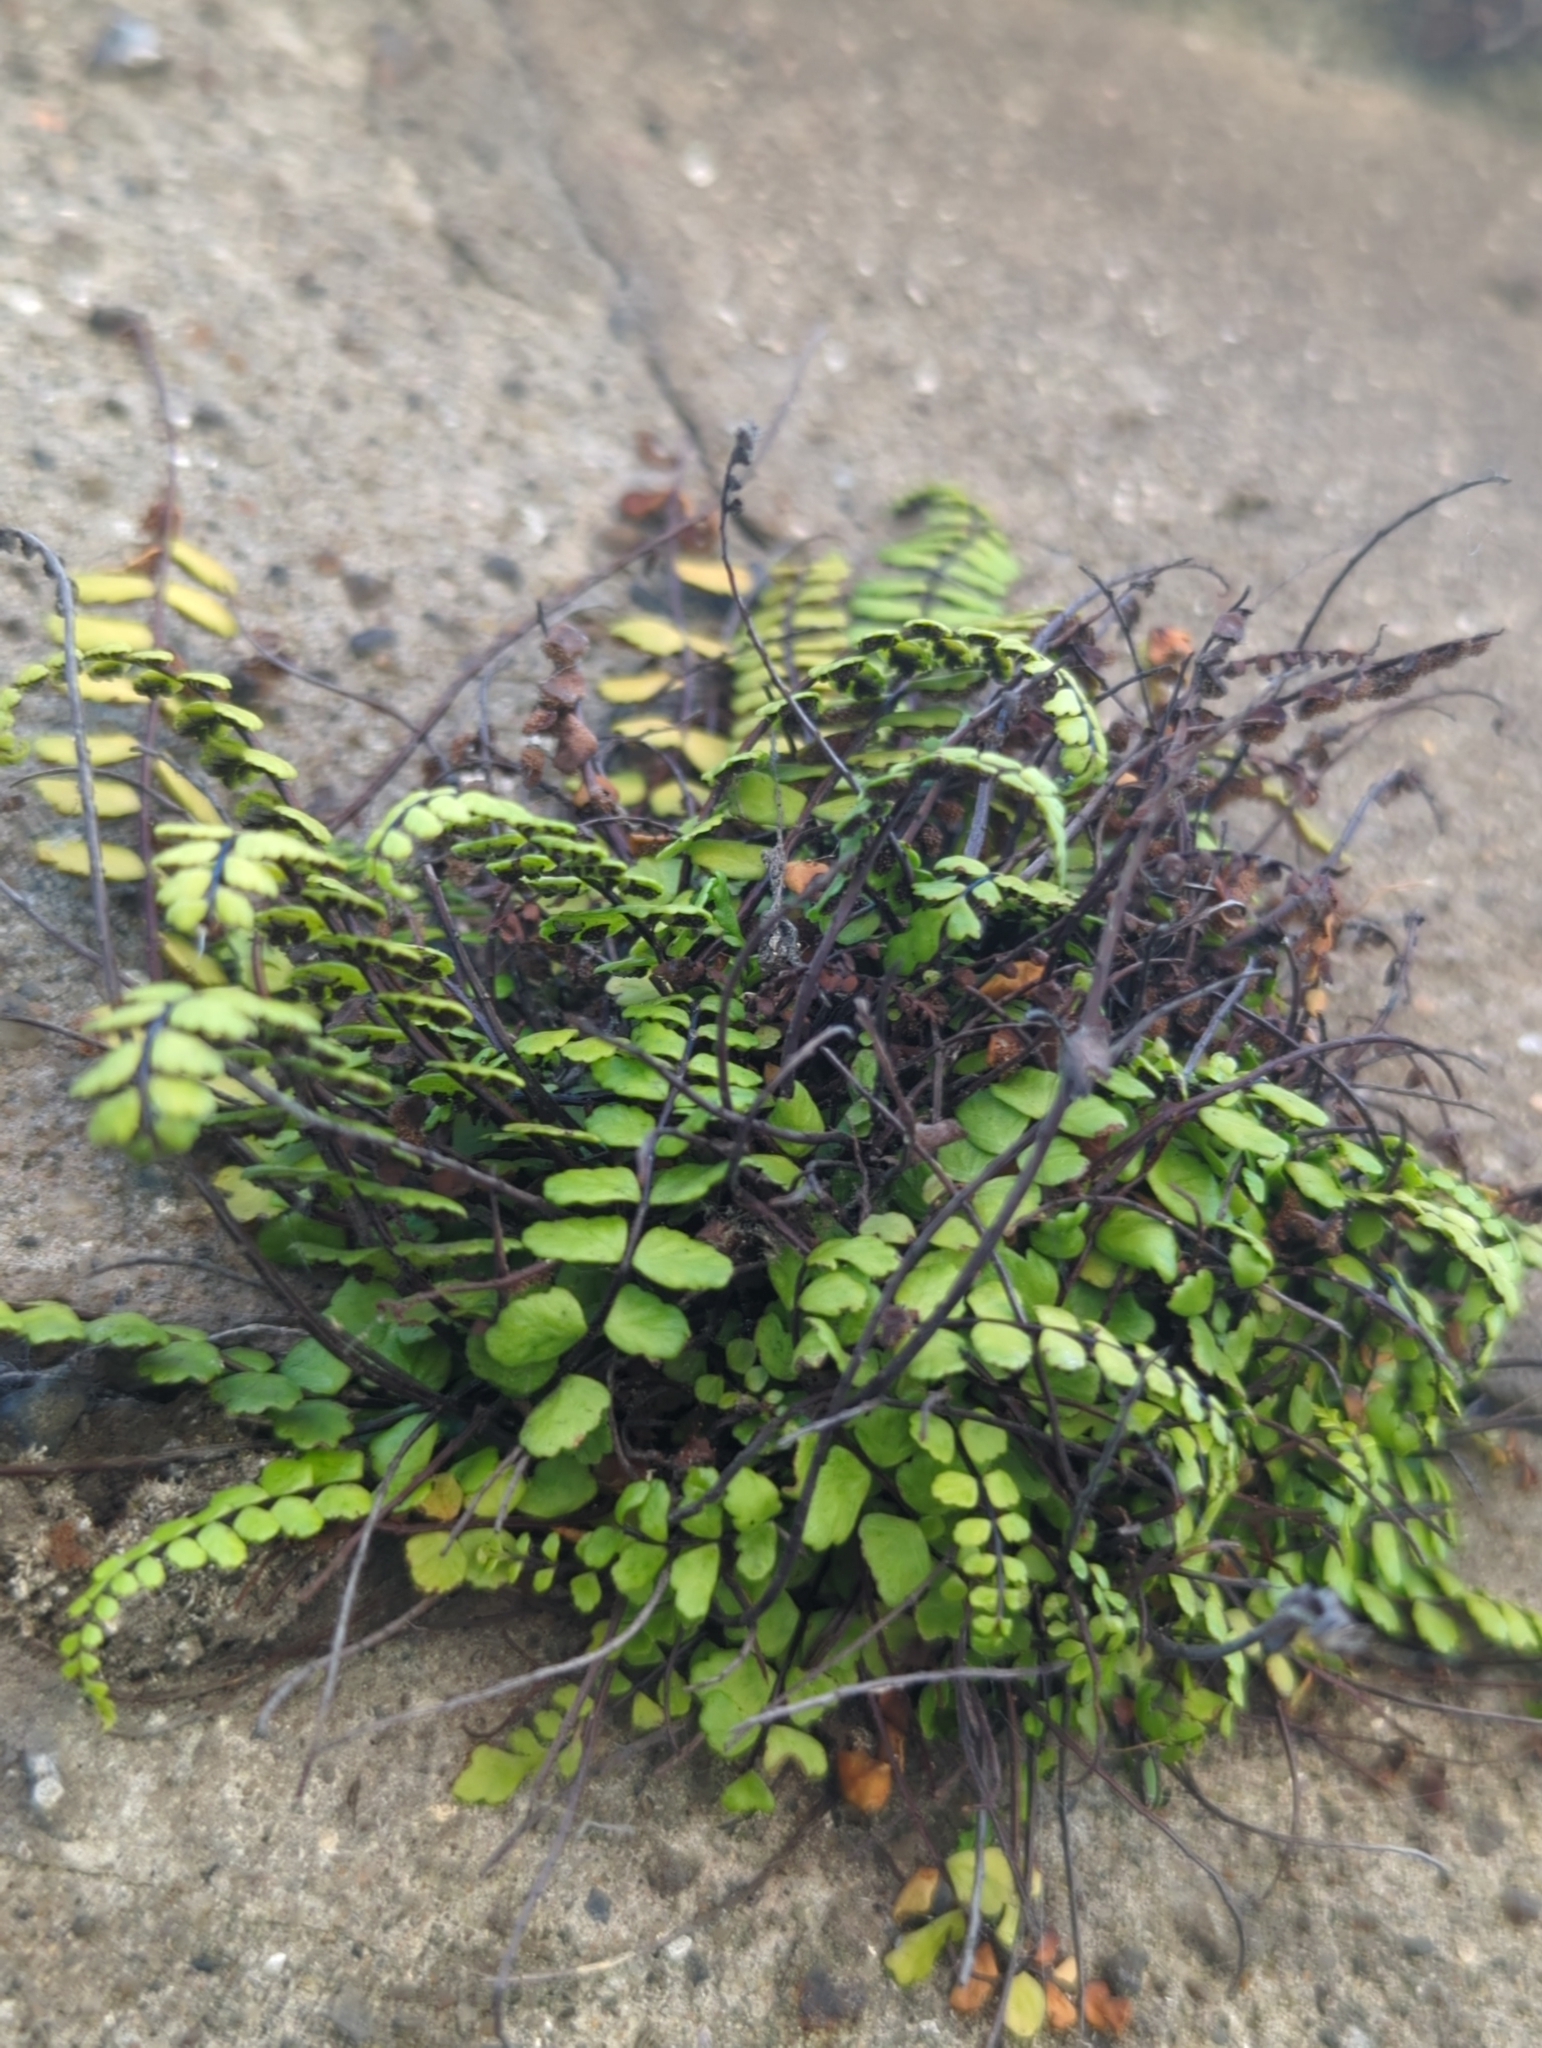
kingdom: Plantae
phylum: Tracheophyta
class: Polypodiopsida
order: Polypodiales
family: Aspleniaceae
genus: Asplenium
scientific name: Asplenium trichomanes
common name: Maidenhair spleenwort
